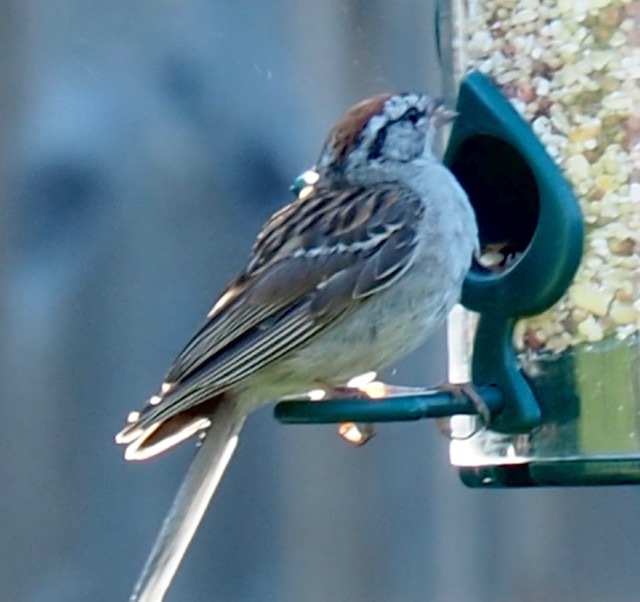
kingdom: Animalia
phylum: Chordata
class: Aves
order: Passeriformes
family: Passerellidae
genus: Spizella
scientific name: Spizella passerina
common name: Chipping sparrow
